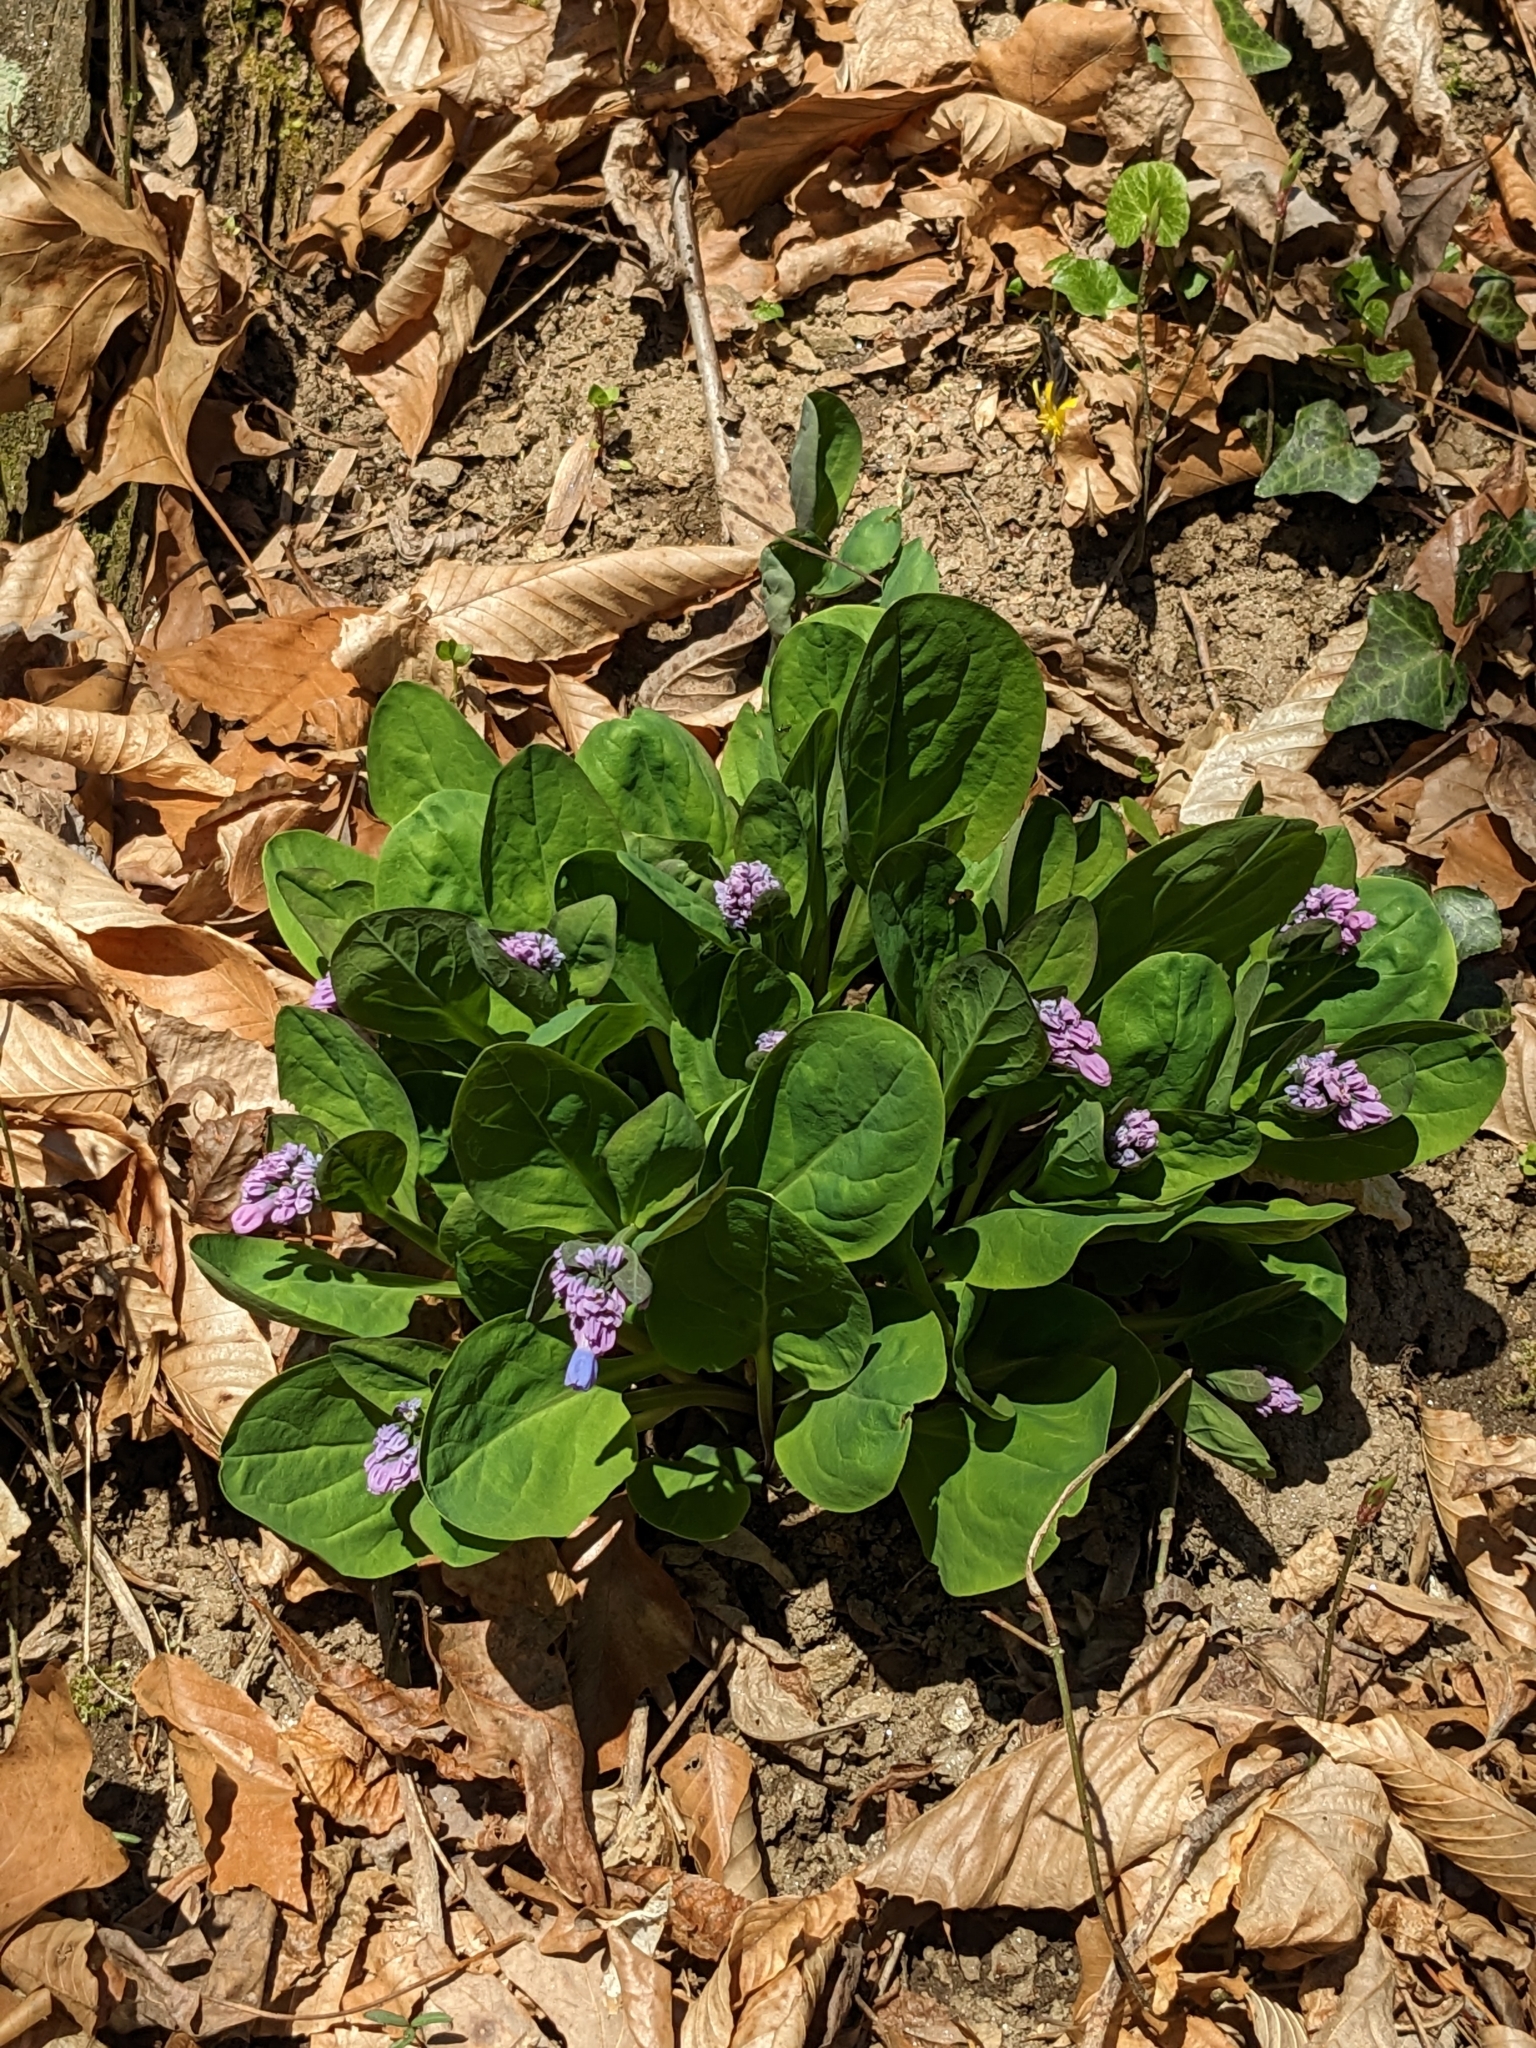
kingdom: Plantae
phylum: Tracheophyta
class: Magnoliopsida
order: Boraginales
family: Boraginaceae
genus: Mertensia
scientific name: Mertensia virginica
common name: Virginia bluebells
